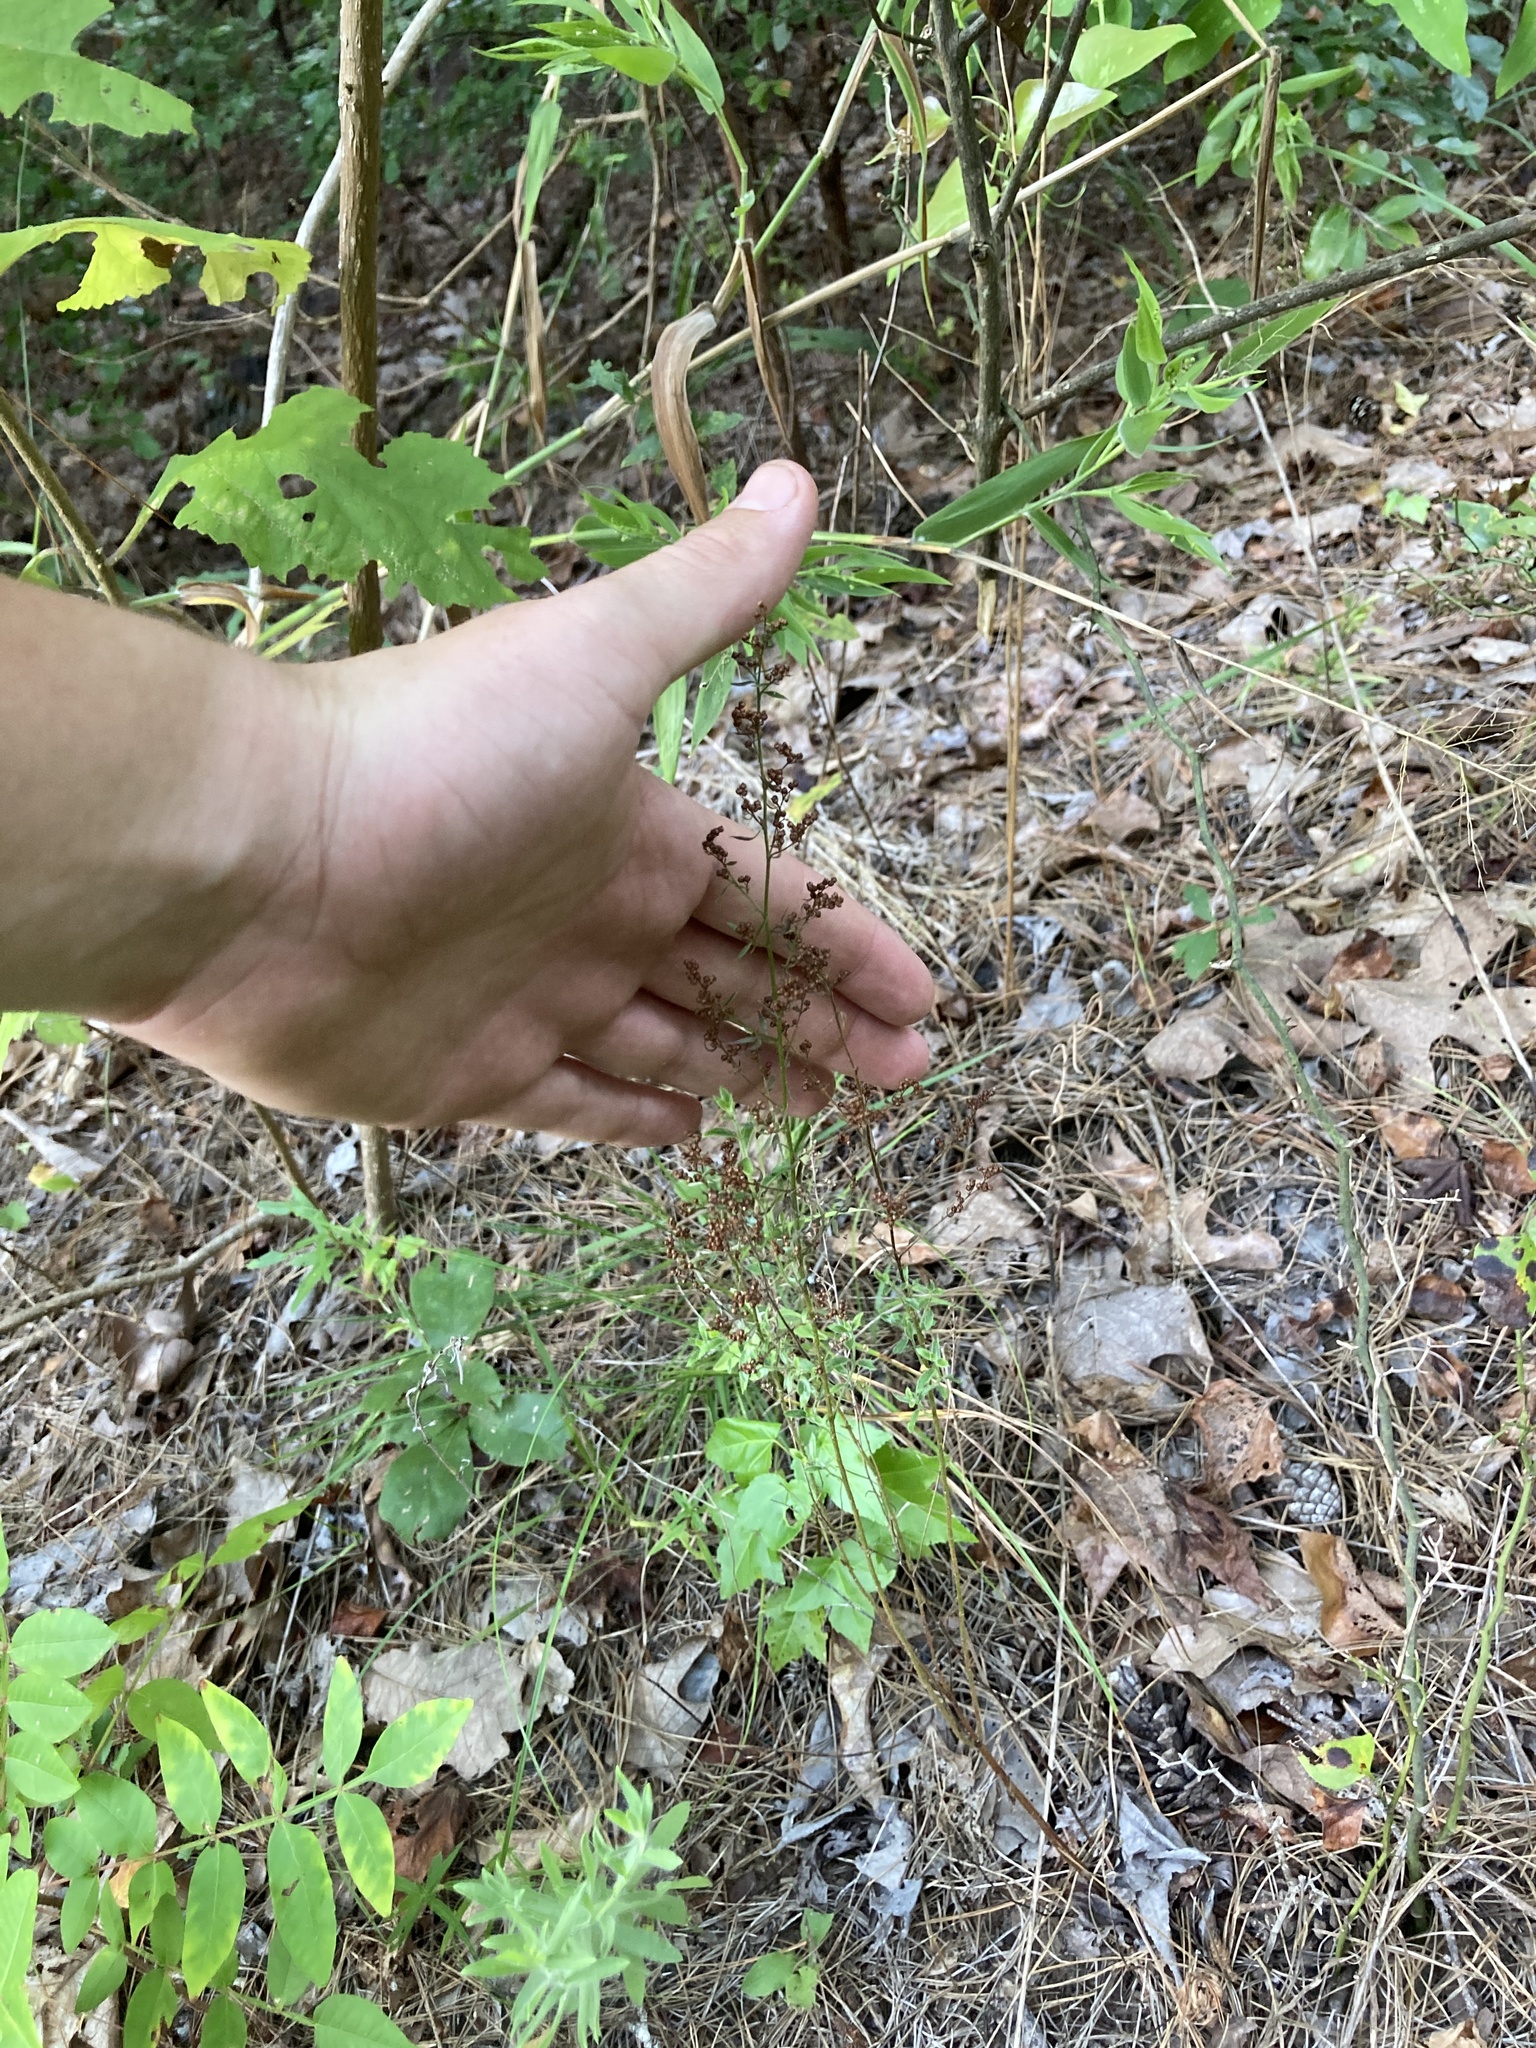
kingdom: Plantae
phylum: Tracheophyta
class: Magnoliopsida
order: Malvales
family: Cistaceae
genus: Lechea
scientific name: Lechea mucronata
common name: Hairy pinweed
